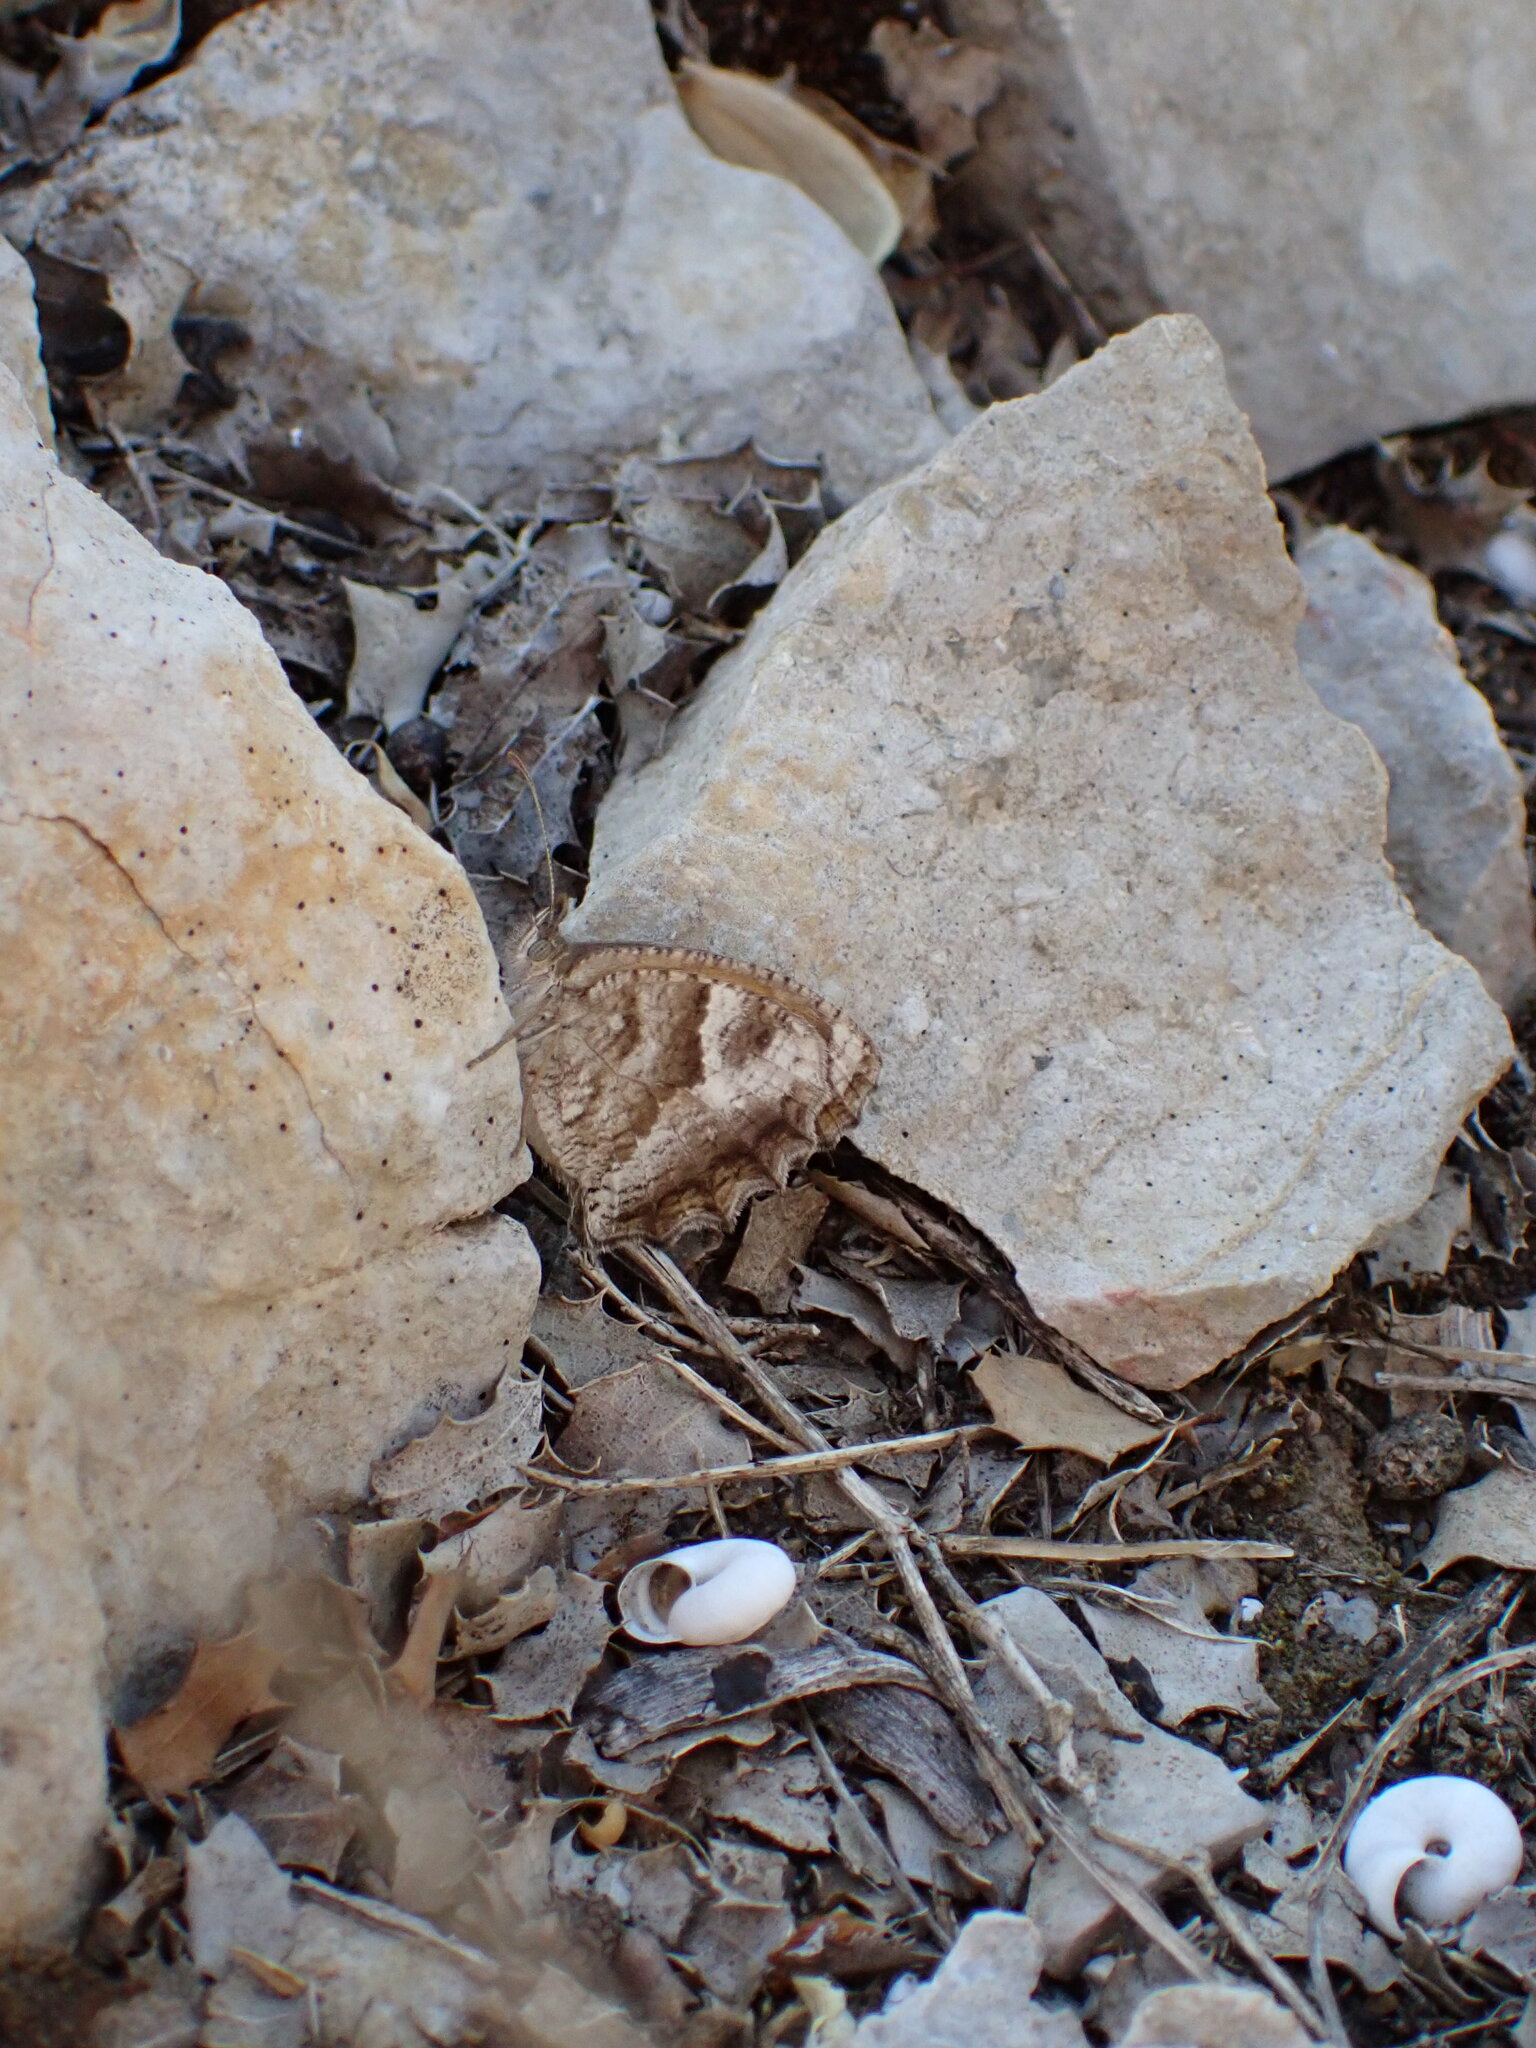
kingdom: Animalia
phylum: Arthropoda
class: Insecta
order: Lepidoptera
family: Nymphalidae
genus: Pyronia
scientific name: Pyronia cecilia
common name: Southern gatekeeper
